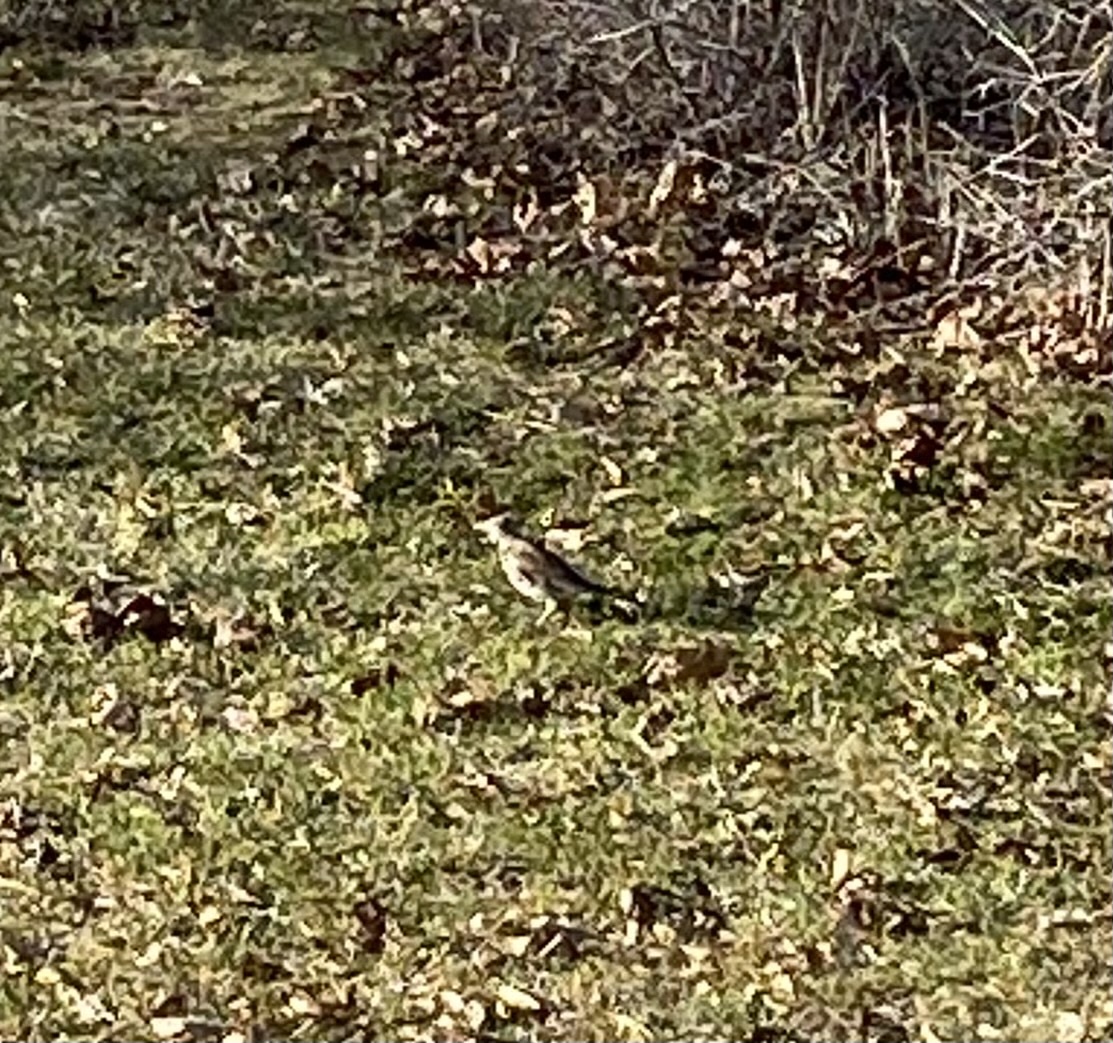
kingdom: Animalia
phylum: Chordata
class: Aves
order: Passeriformes
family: Turdidae
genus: Turdus
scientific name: Turdus pilaris
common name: Fieldfare
